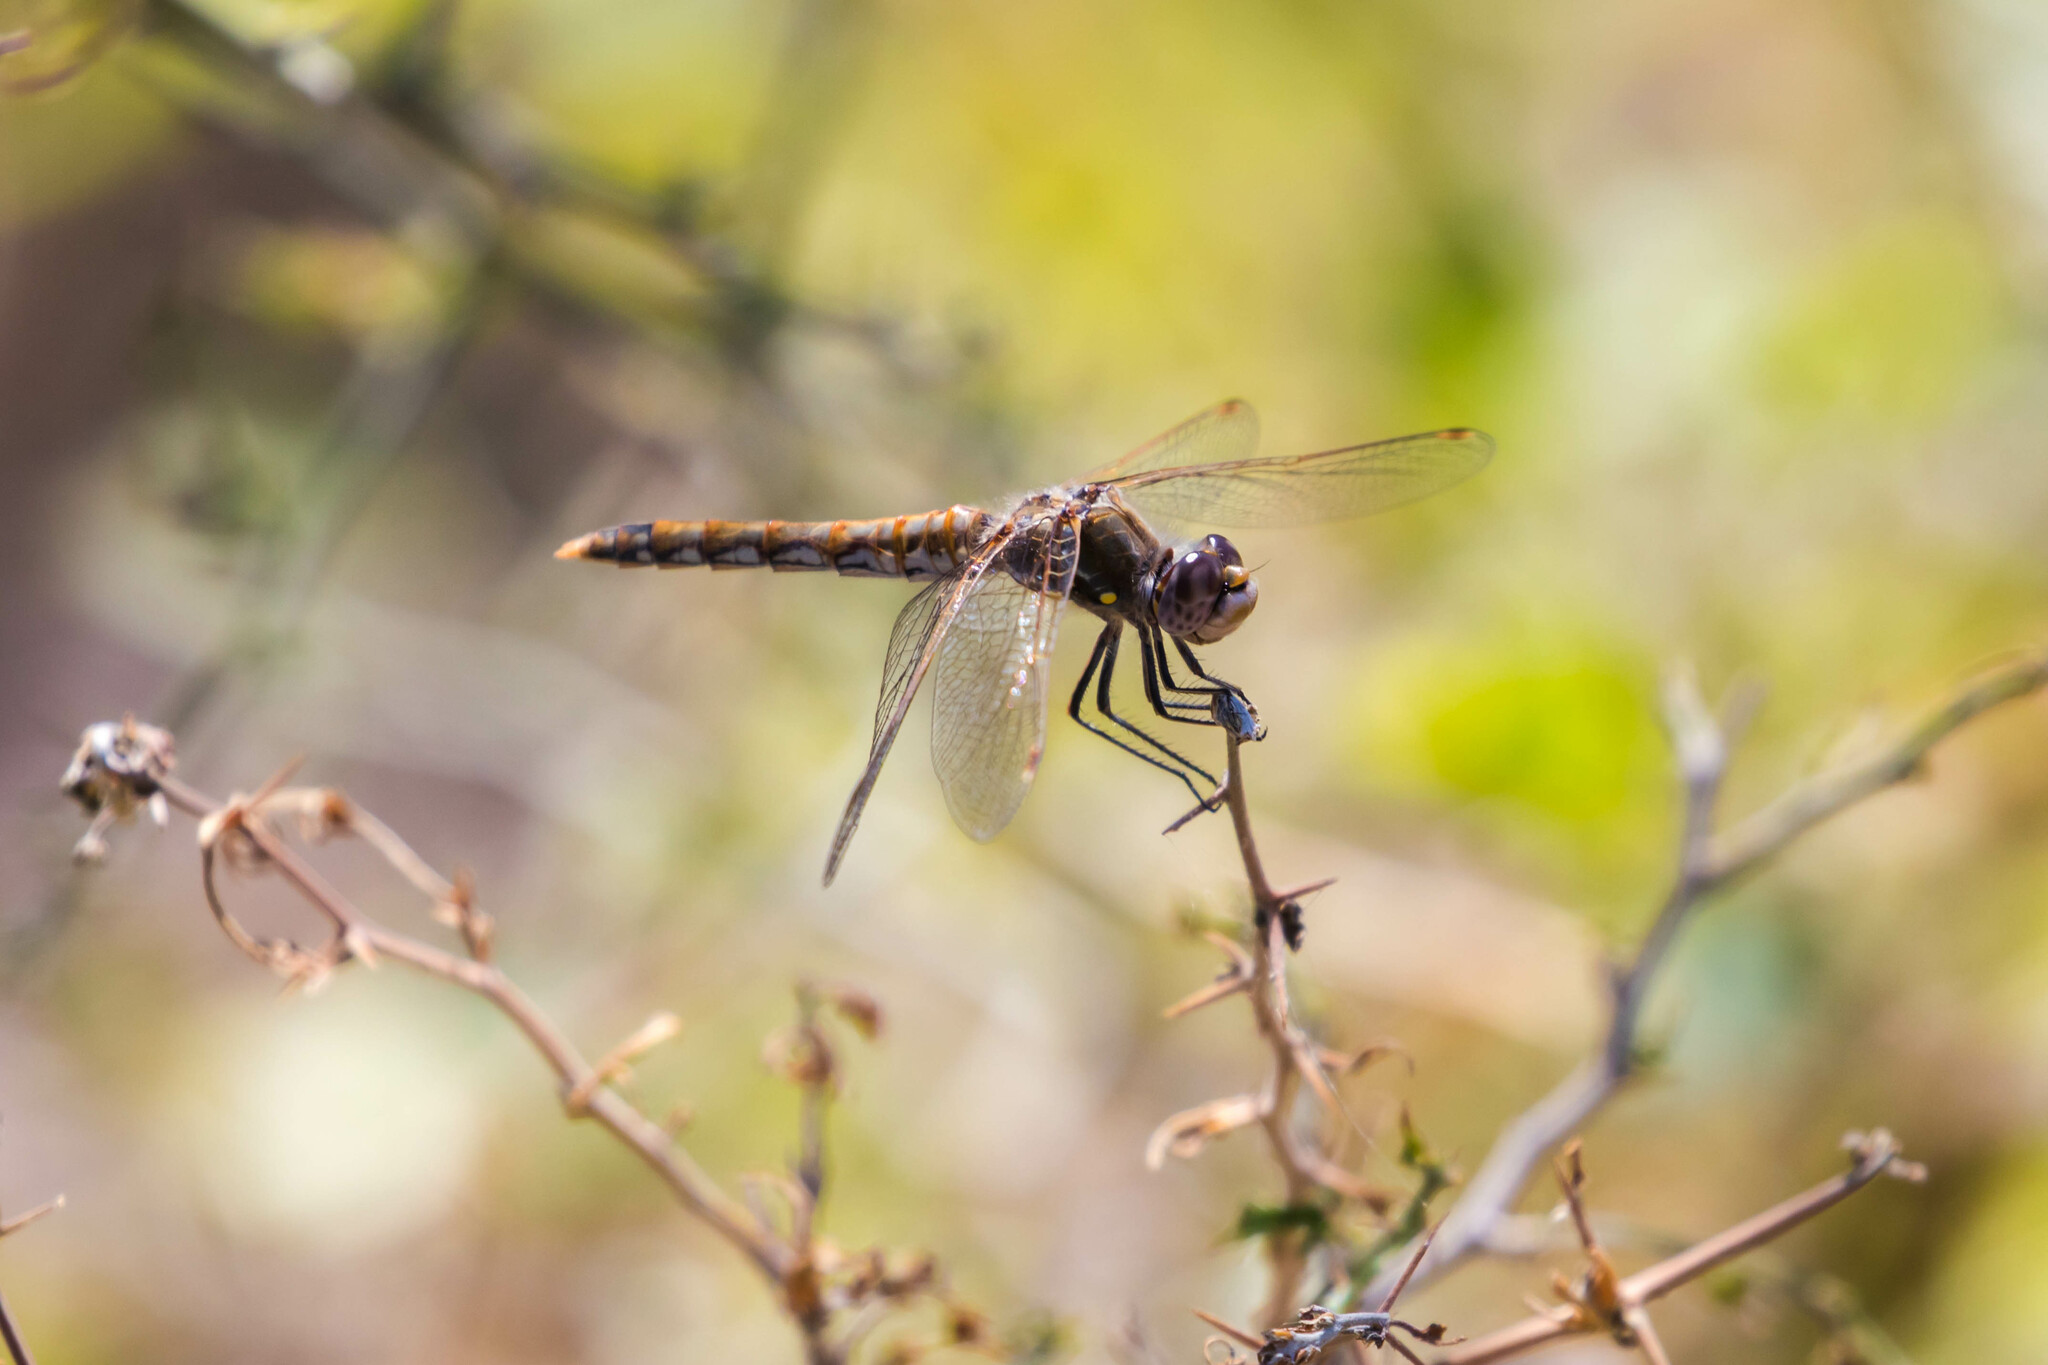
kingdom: Animalia
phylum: Arthropoda
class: Insecta
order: Odonata
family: Libellulidae
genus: Sympetrum
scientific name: Sympetrum corruptum
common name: Variegated meadowhawk
